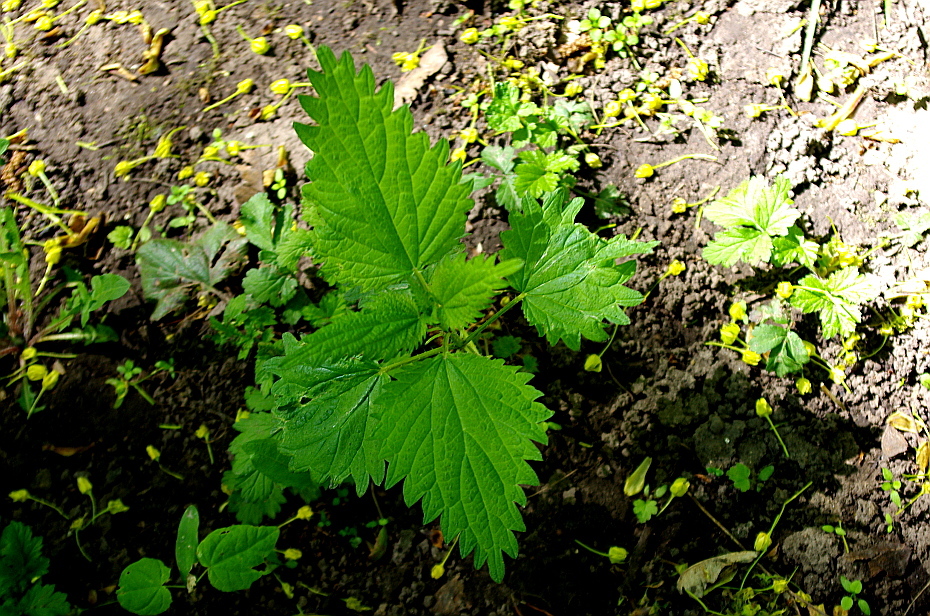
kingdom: Plantae
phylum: Tracheophyta
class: Magnoliopsida
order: Rosales
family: Urticaceae
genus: Urtica
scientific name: Urtica dioica
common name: Common nettle
